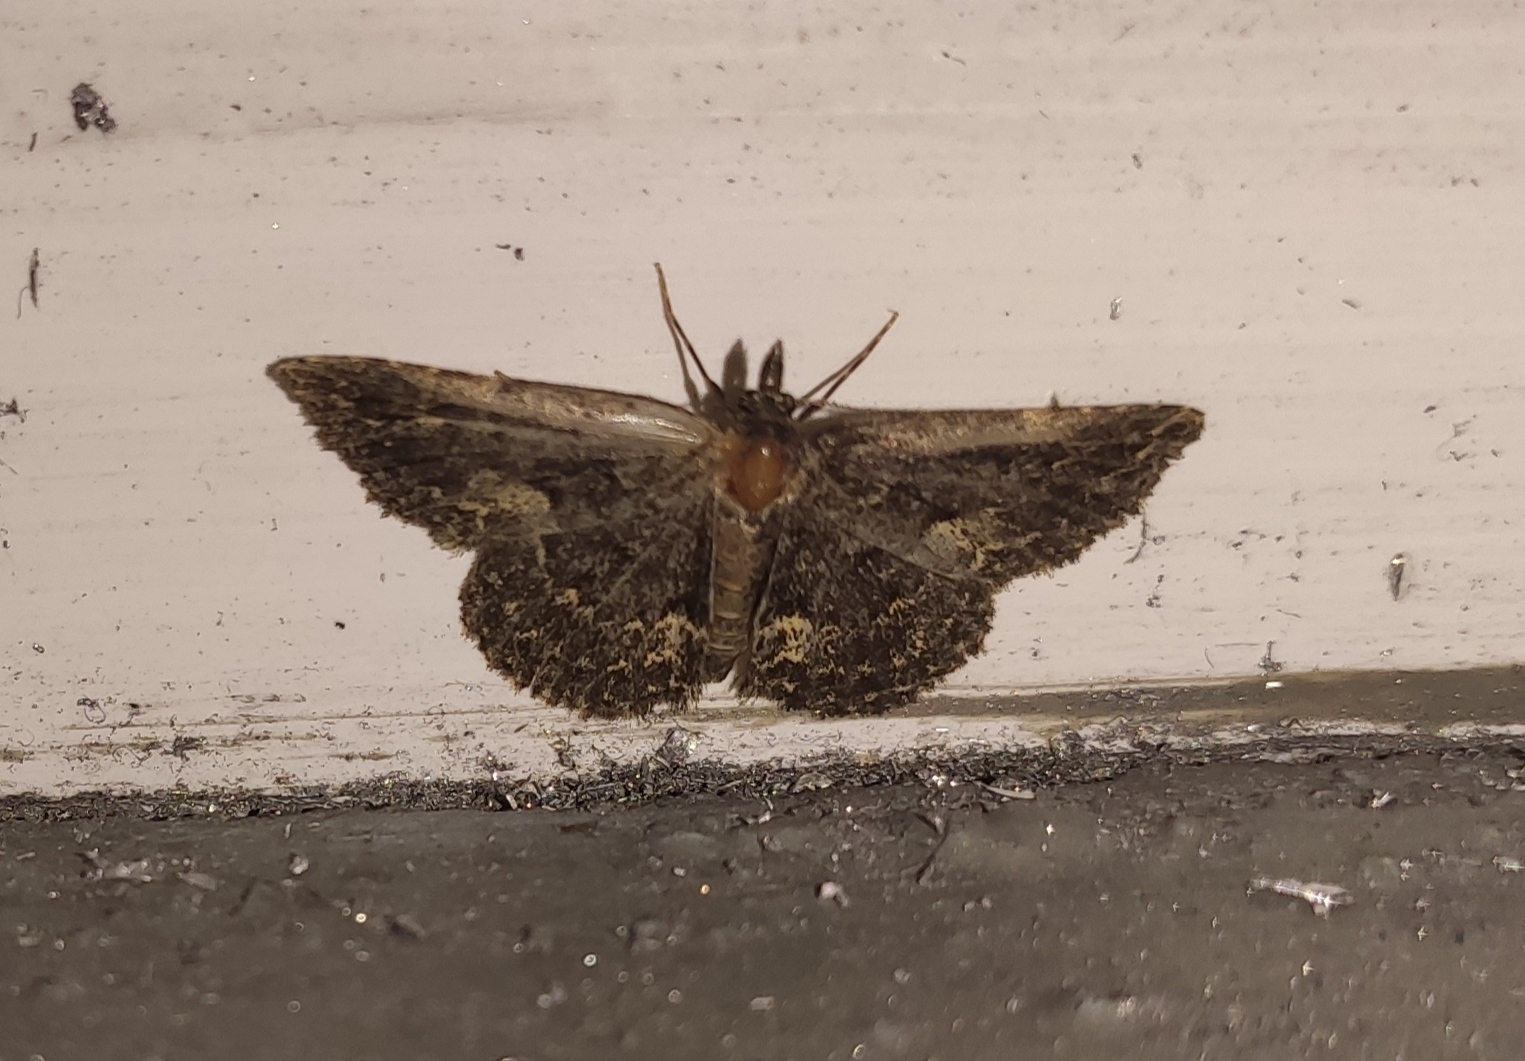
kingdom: Animalia
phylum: Arthropoda
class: Insecta
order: Lepidoptera
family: Erebidae
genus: Parascotia
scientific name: Parascotia fuliginaria
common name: Waved black
